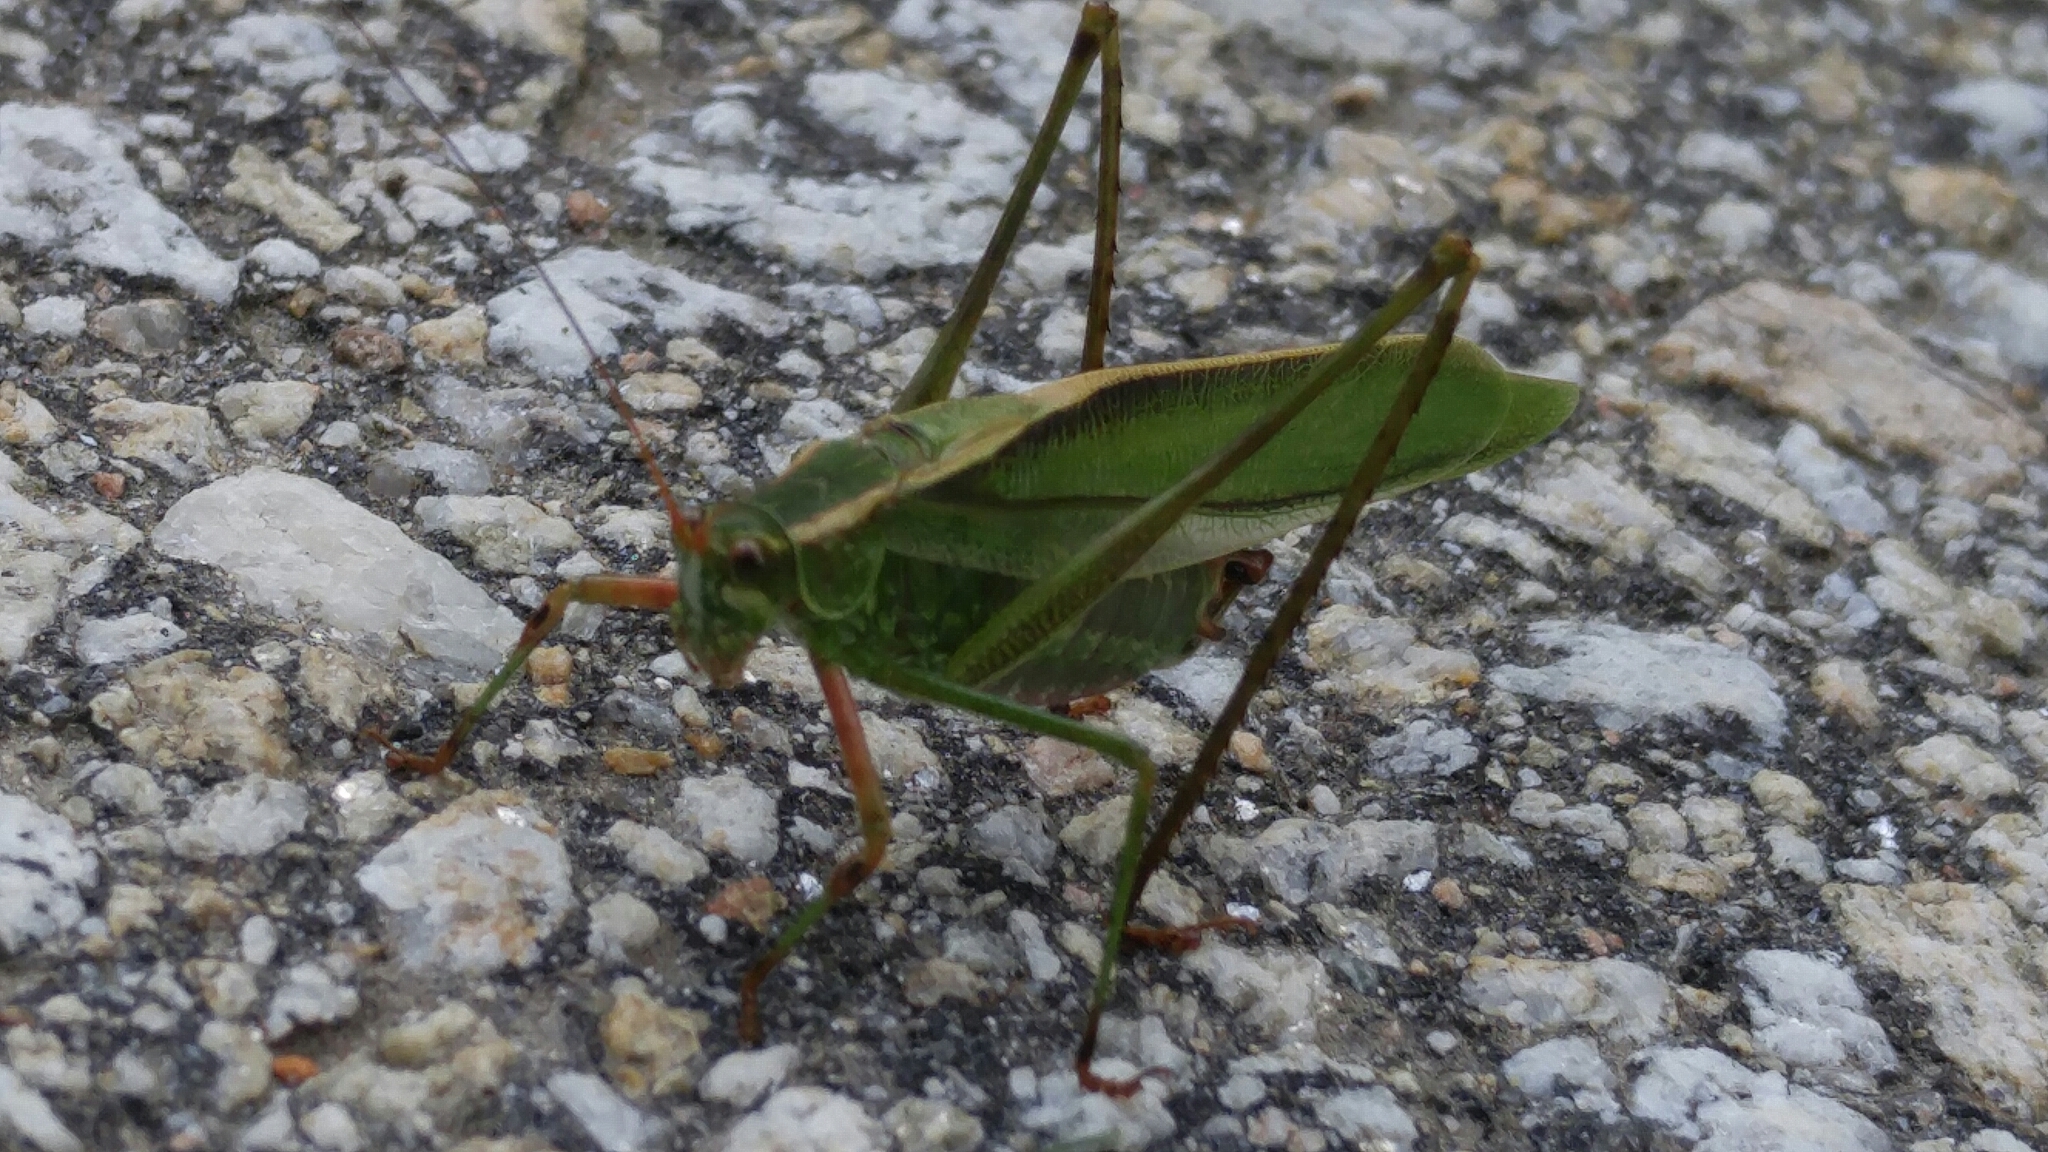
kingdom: Animalia
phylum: Arthropoda
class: Insecta
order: Orthoptera
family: Tettigoniidae
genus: Scudderia
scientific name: Scudderia fasciata
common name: Treetop bush katydid
